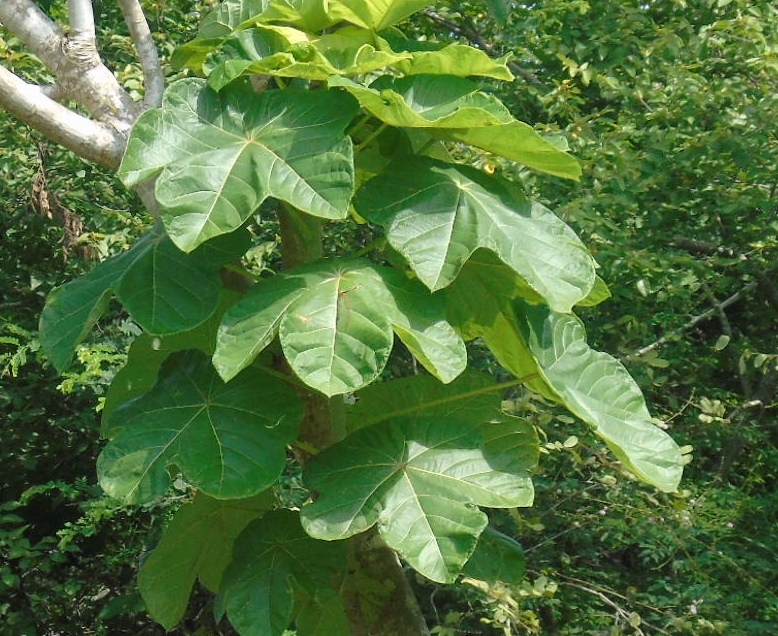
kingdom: Plantae
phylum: Tracheophyta
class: Magnoliopsida
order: Malpighiales
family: Euphorbiaceae
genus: Jatropha
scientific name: Jatropha peltata
